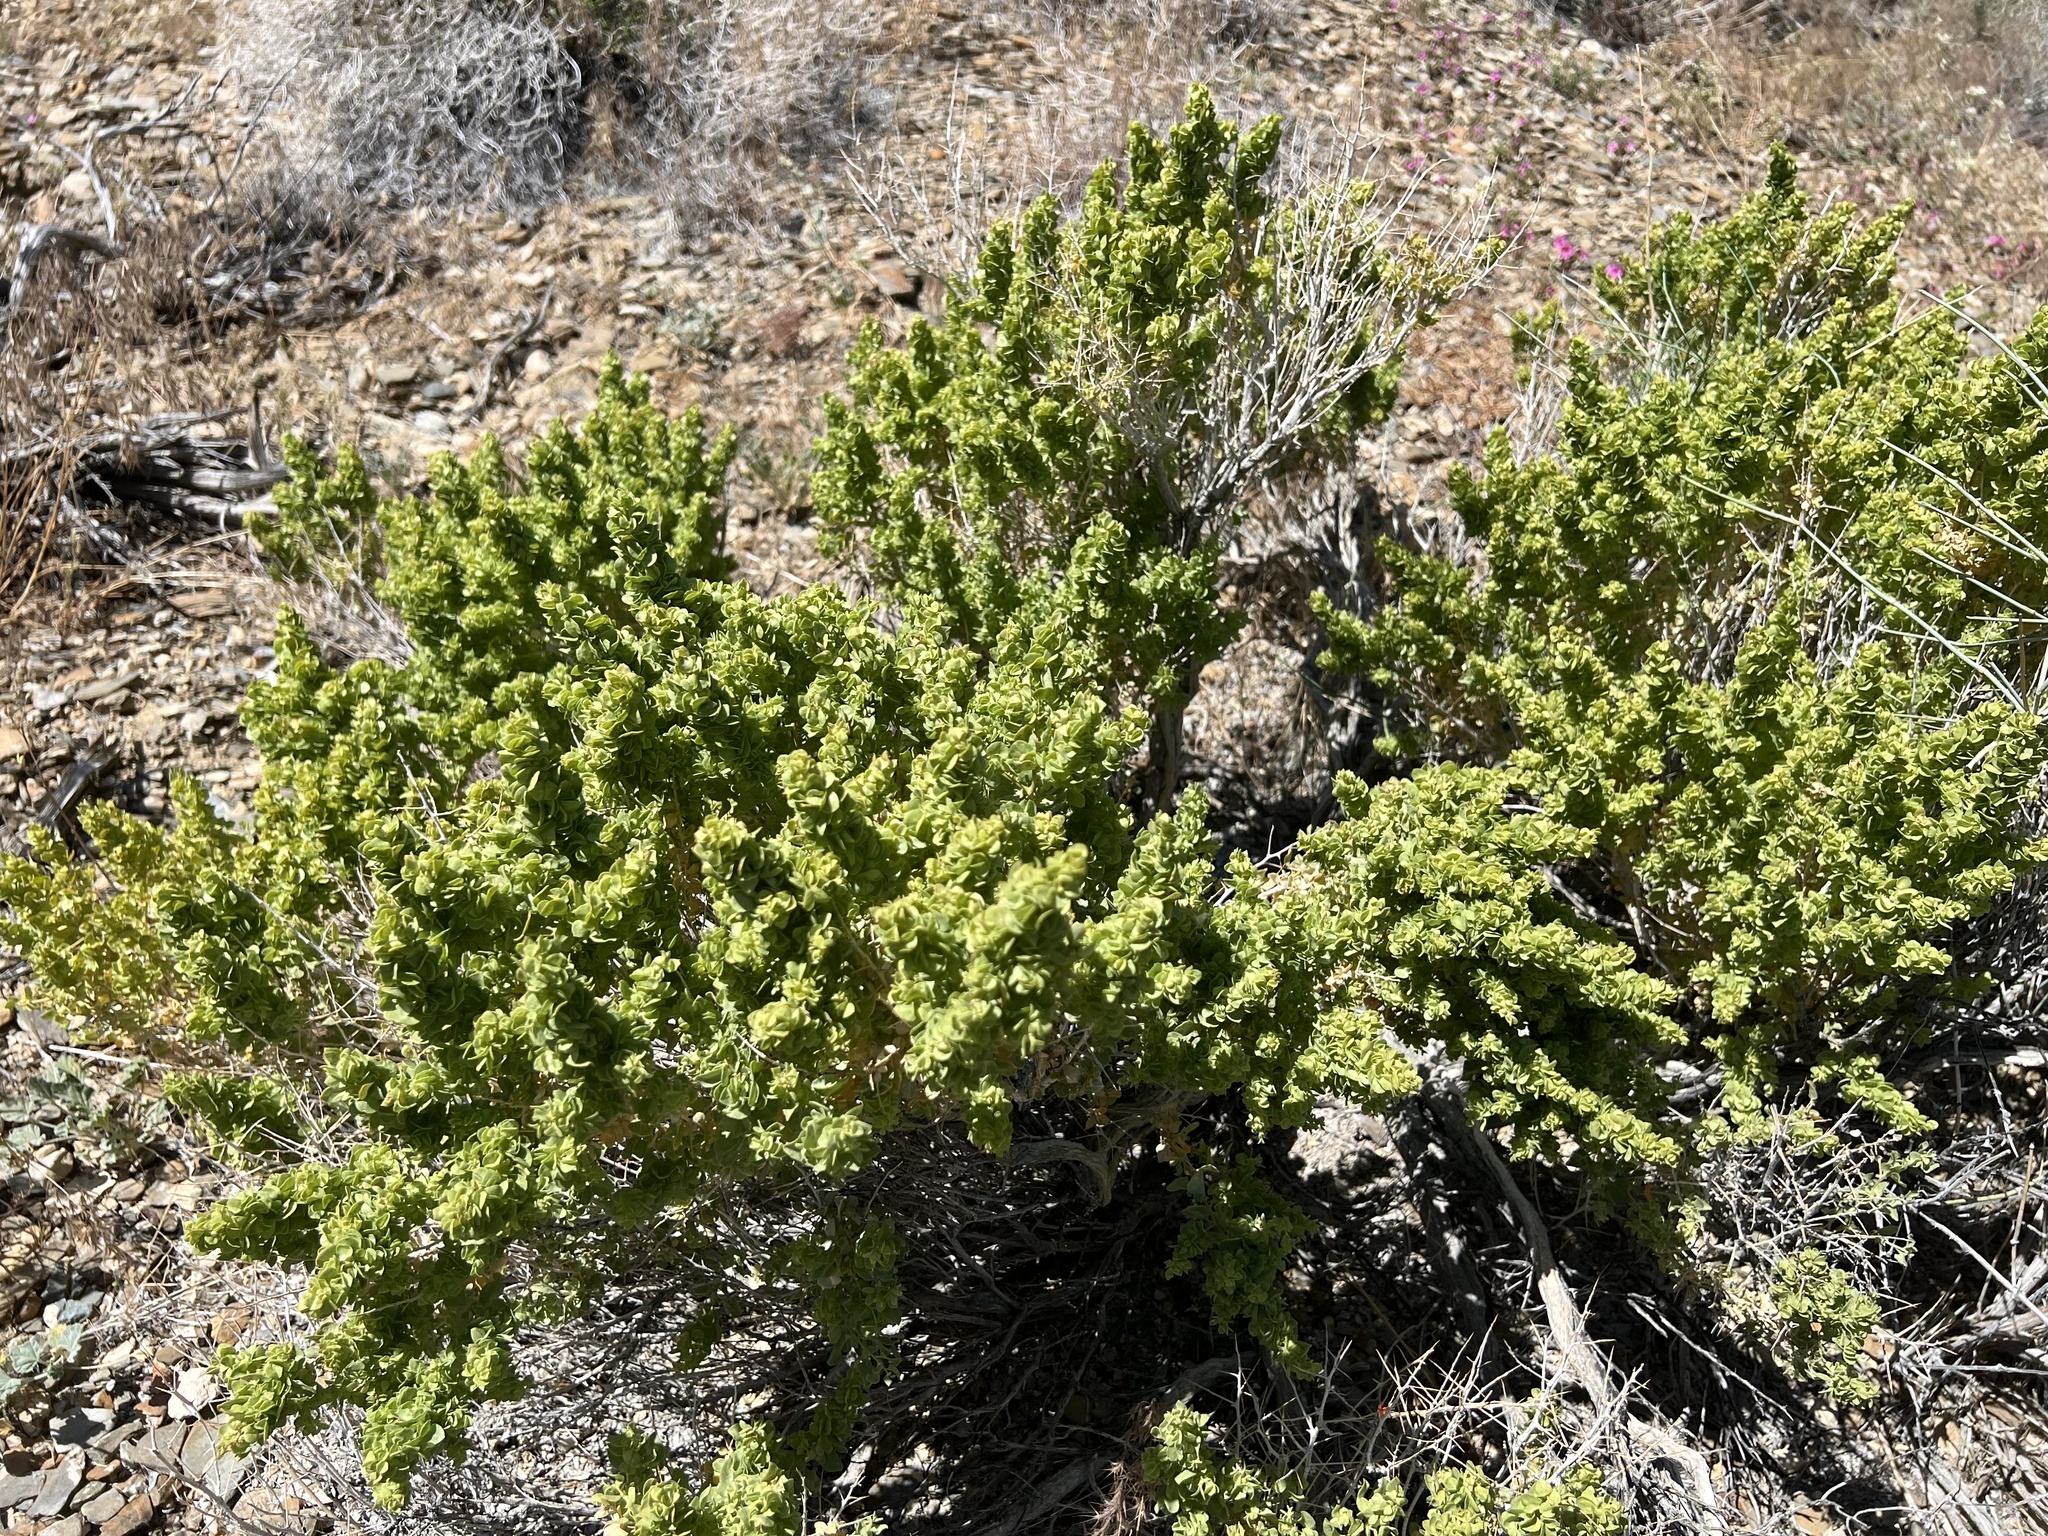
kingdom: Plantae
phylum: Tracheophyta
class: Magnoliopsida
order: Caryophyllales
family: Amaranthaceae
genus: Atriplex
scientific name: Atriplex confertifolia
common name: Shadscale
